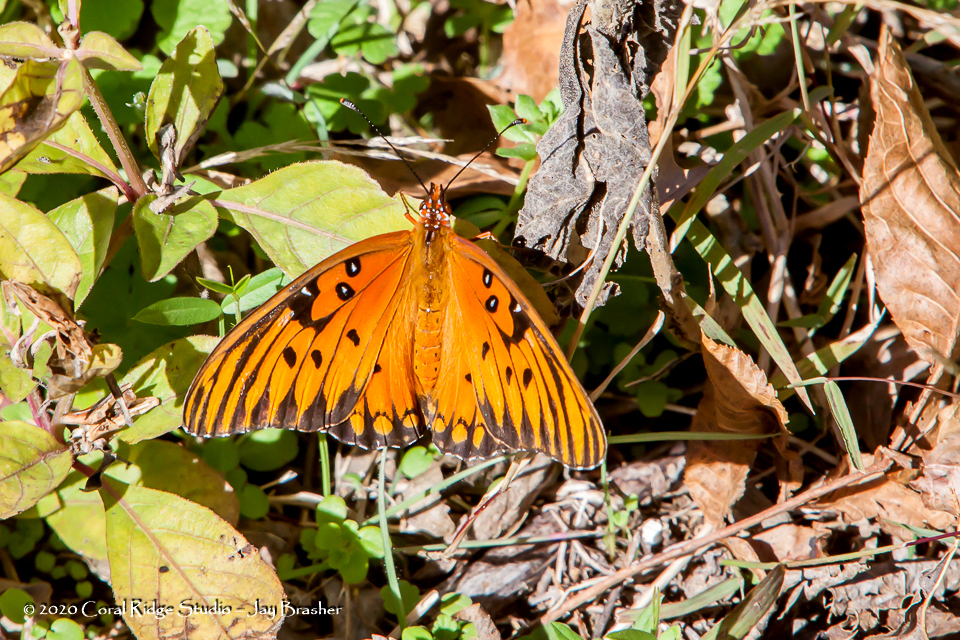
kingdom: Animalia
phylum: Arthropoda
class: Insecta
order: Lepidoptera
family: Nymphalidae
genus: Dione
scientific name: Dione vanillae
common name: Gulf fritillary
